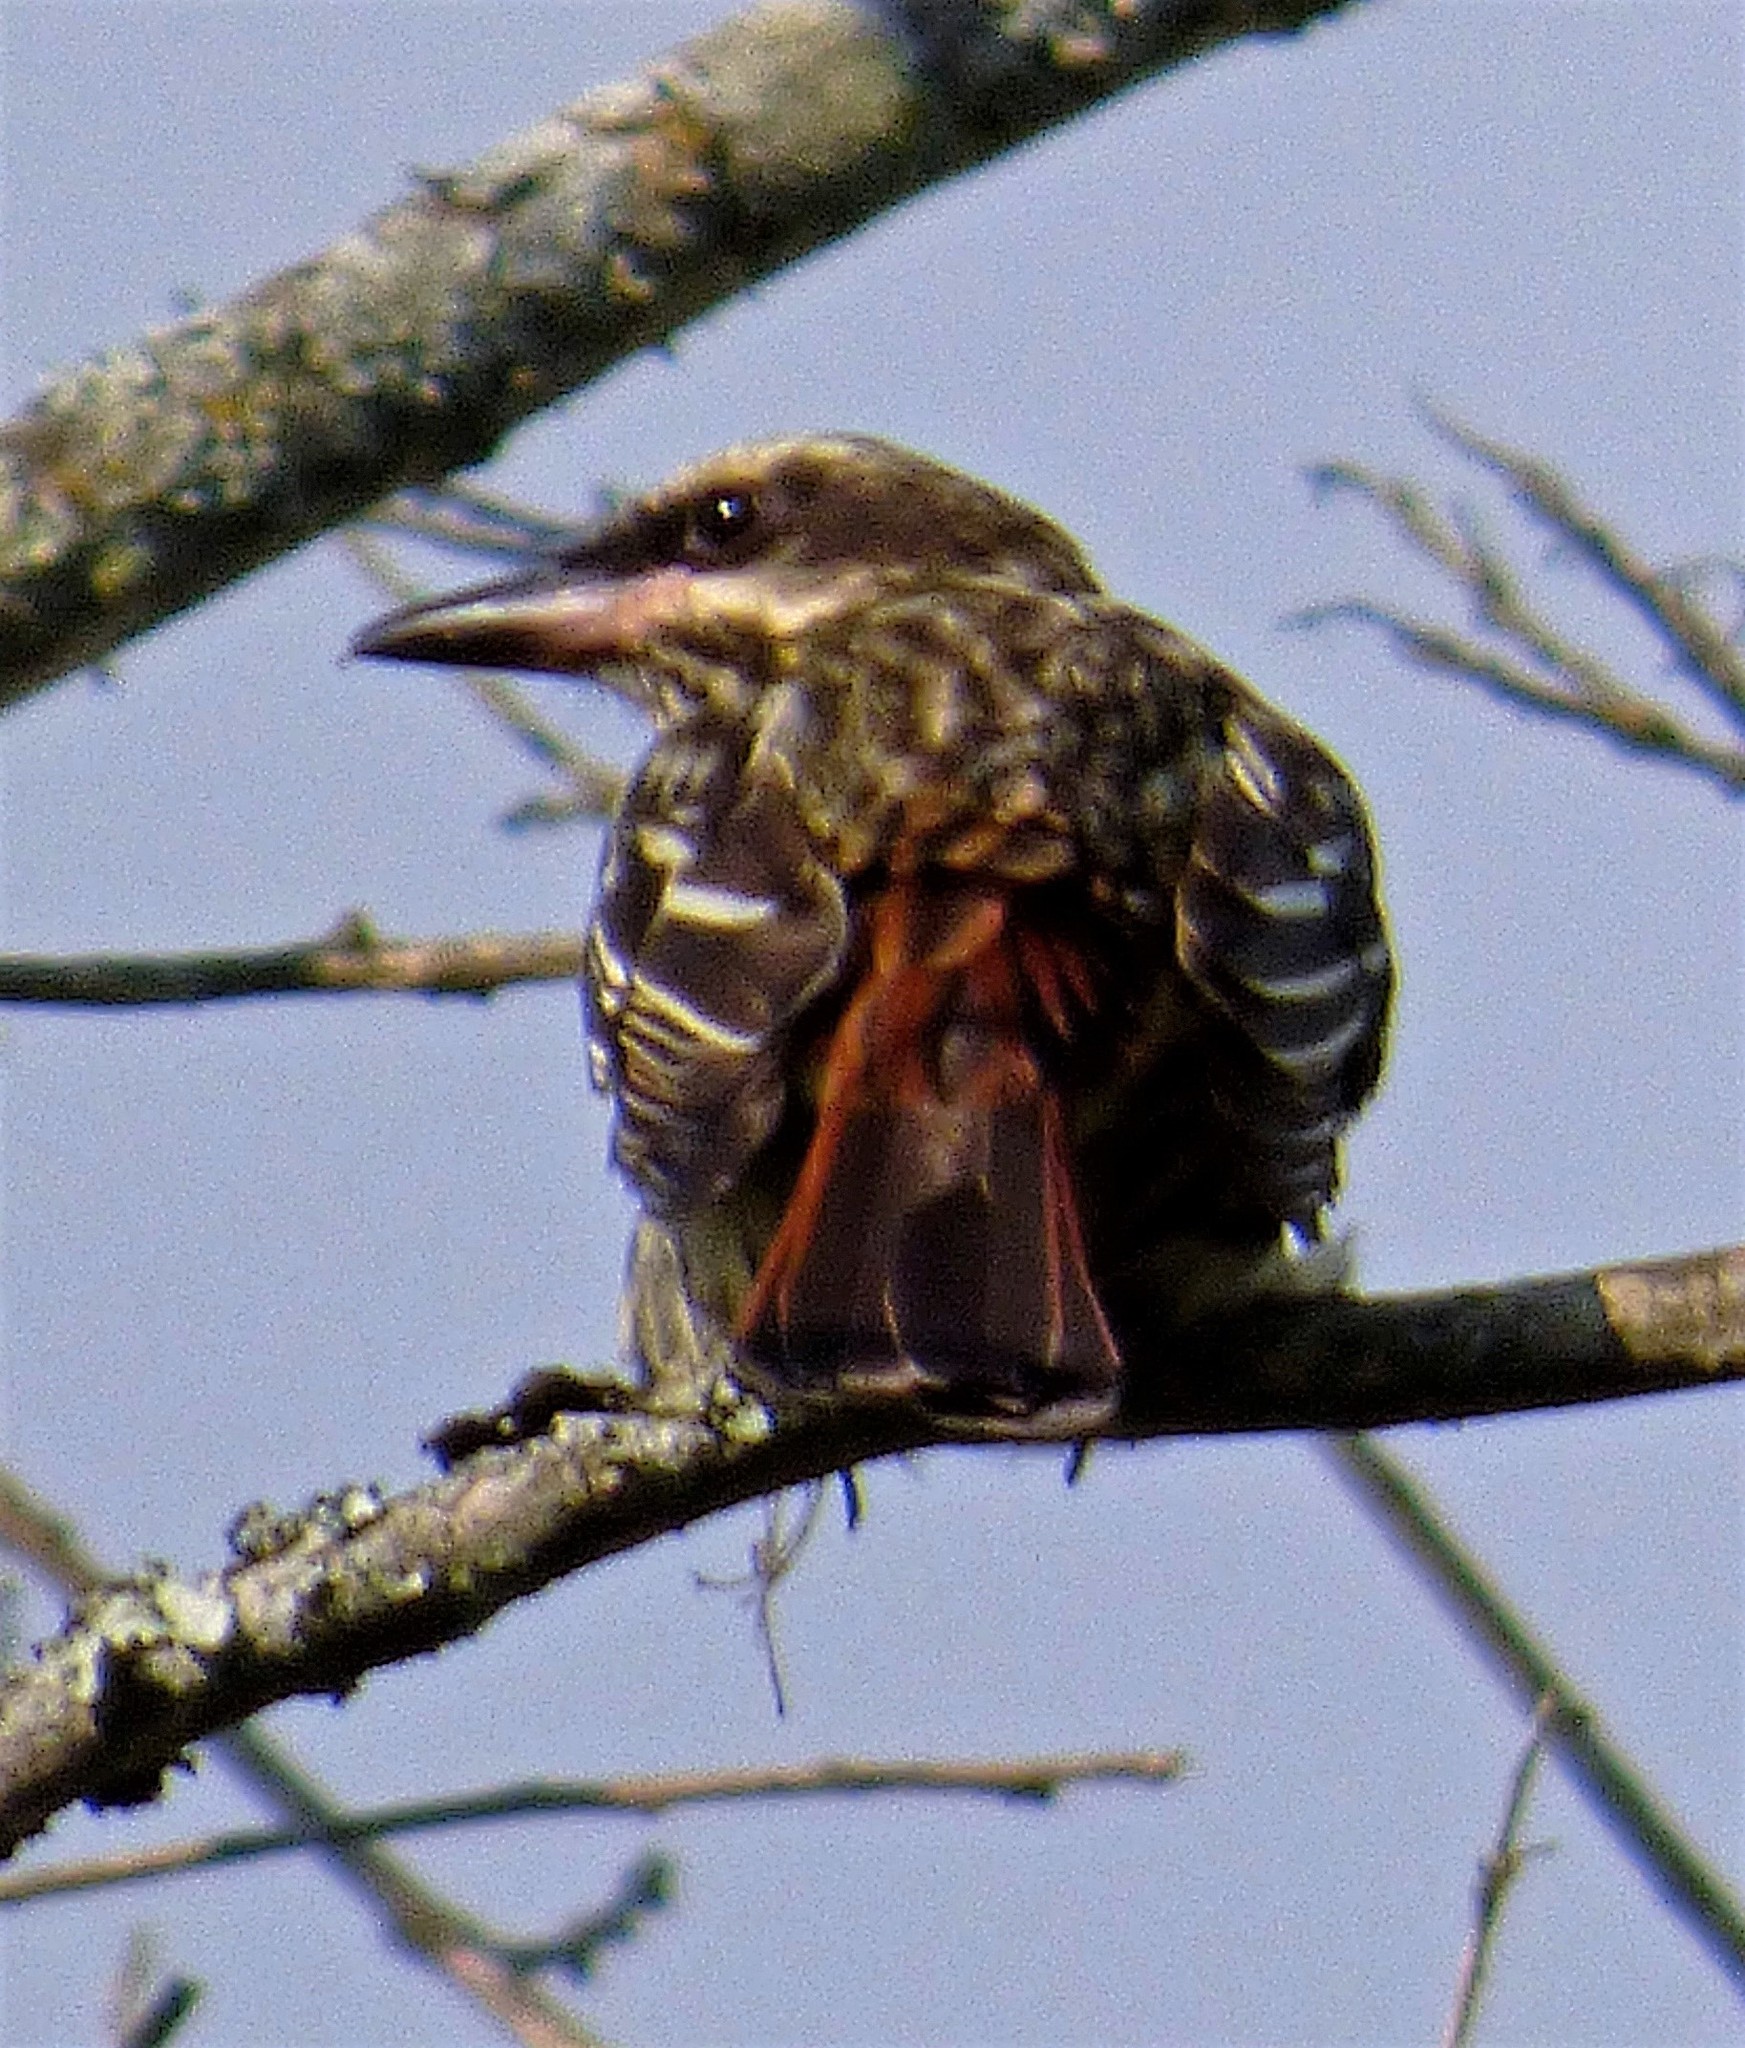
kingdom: Animalia
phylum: Chordata
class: Aves
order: Passeriformes
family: Tyrannidae
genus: Myiodynastes
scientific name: Myiodynastes maculatus
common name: Streaked flycatcher
